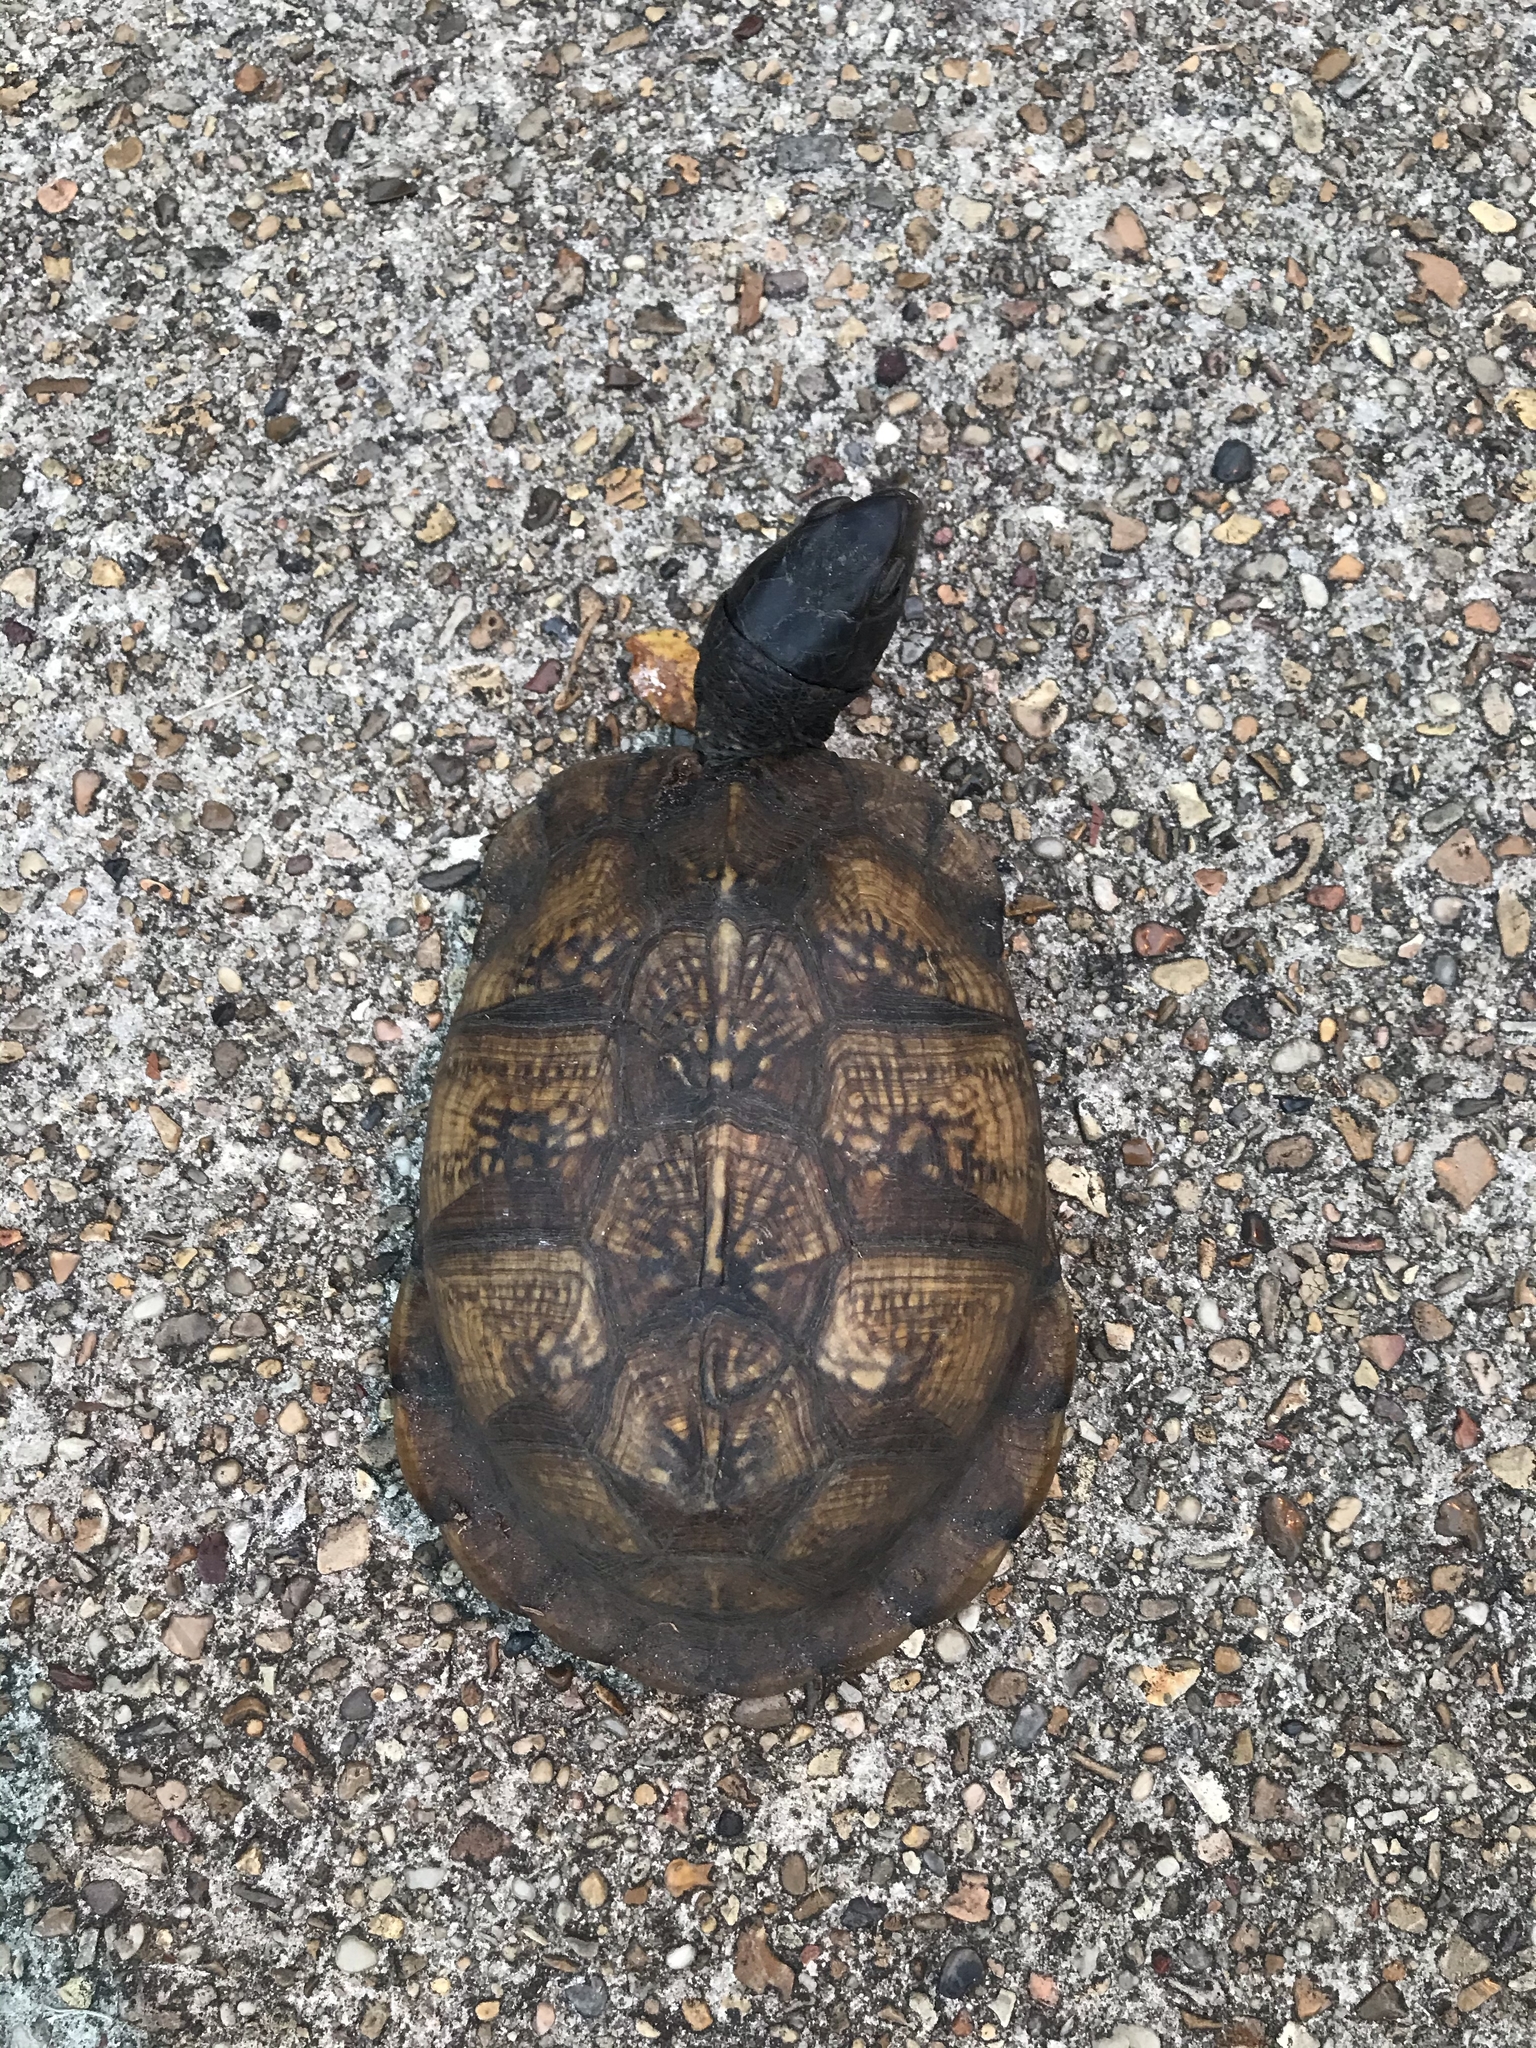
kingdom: Animalia
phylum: Chordata
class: Testudines
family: Emydidae
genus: Terrapene
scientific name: Terrapene carolina
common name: Common box turtle
